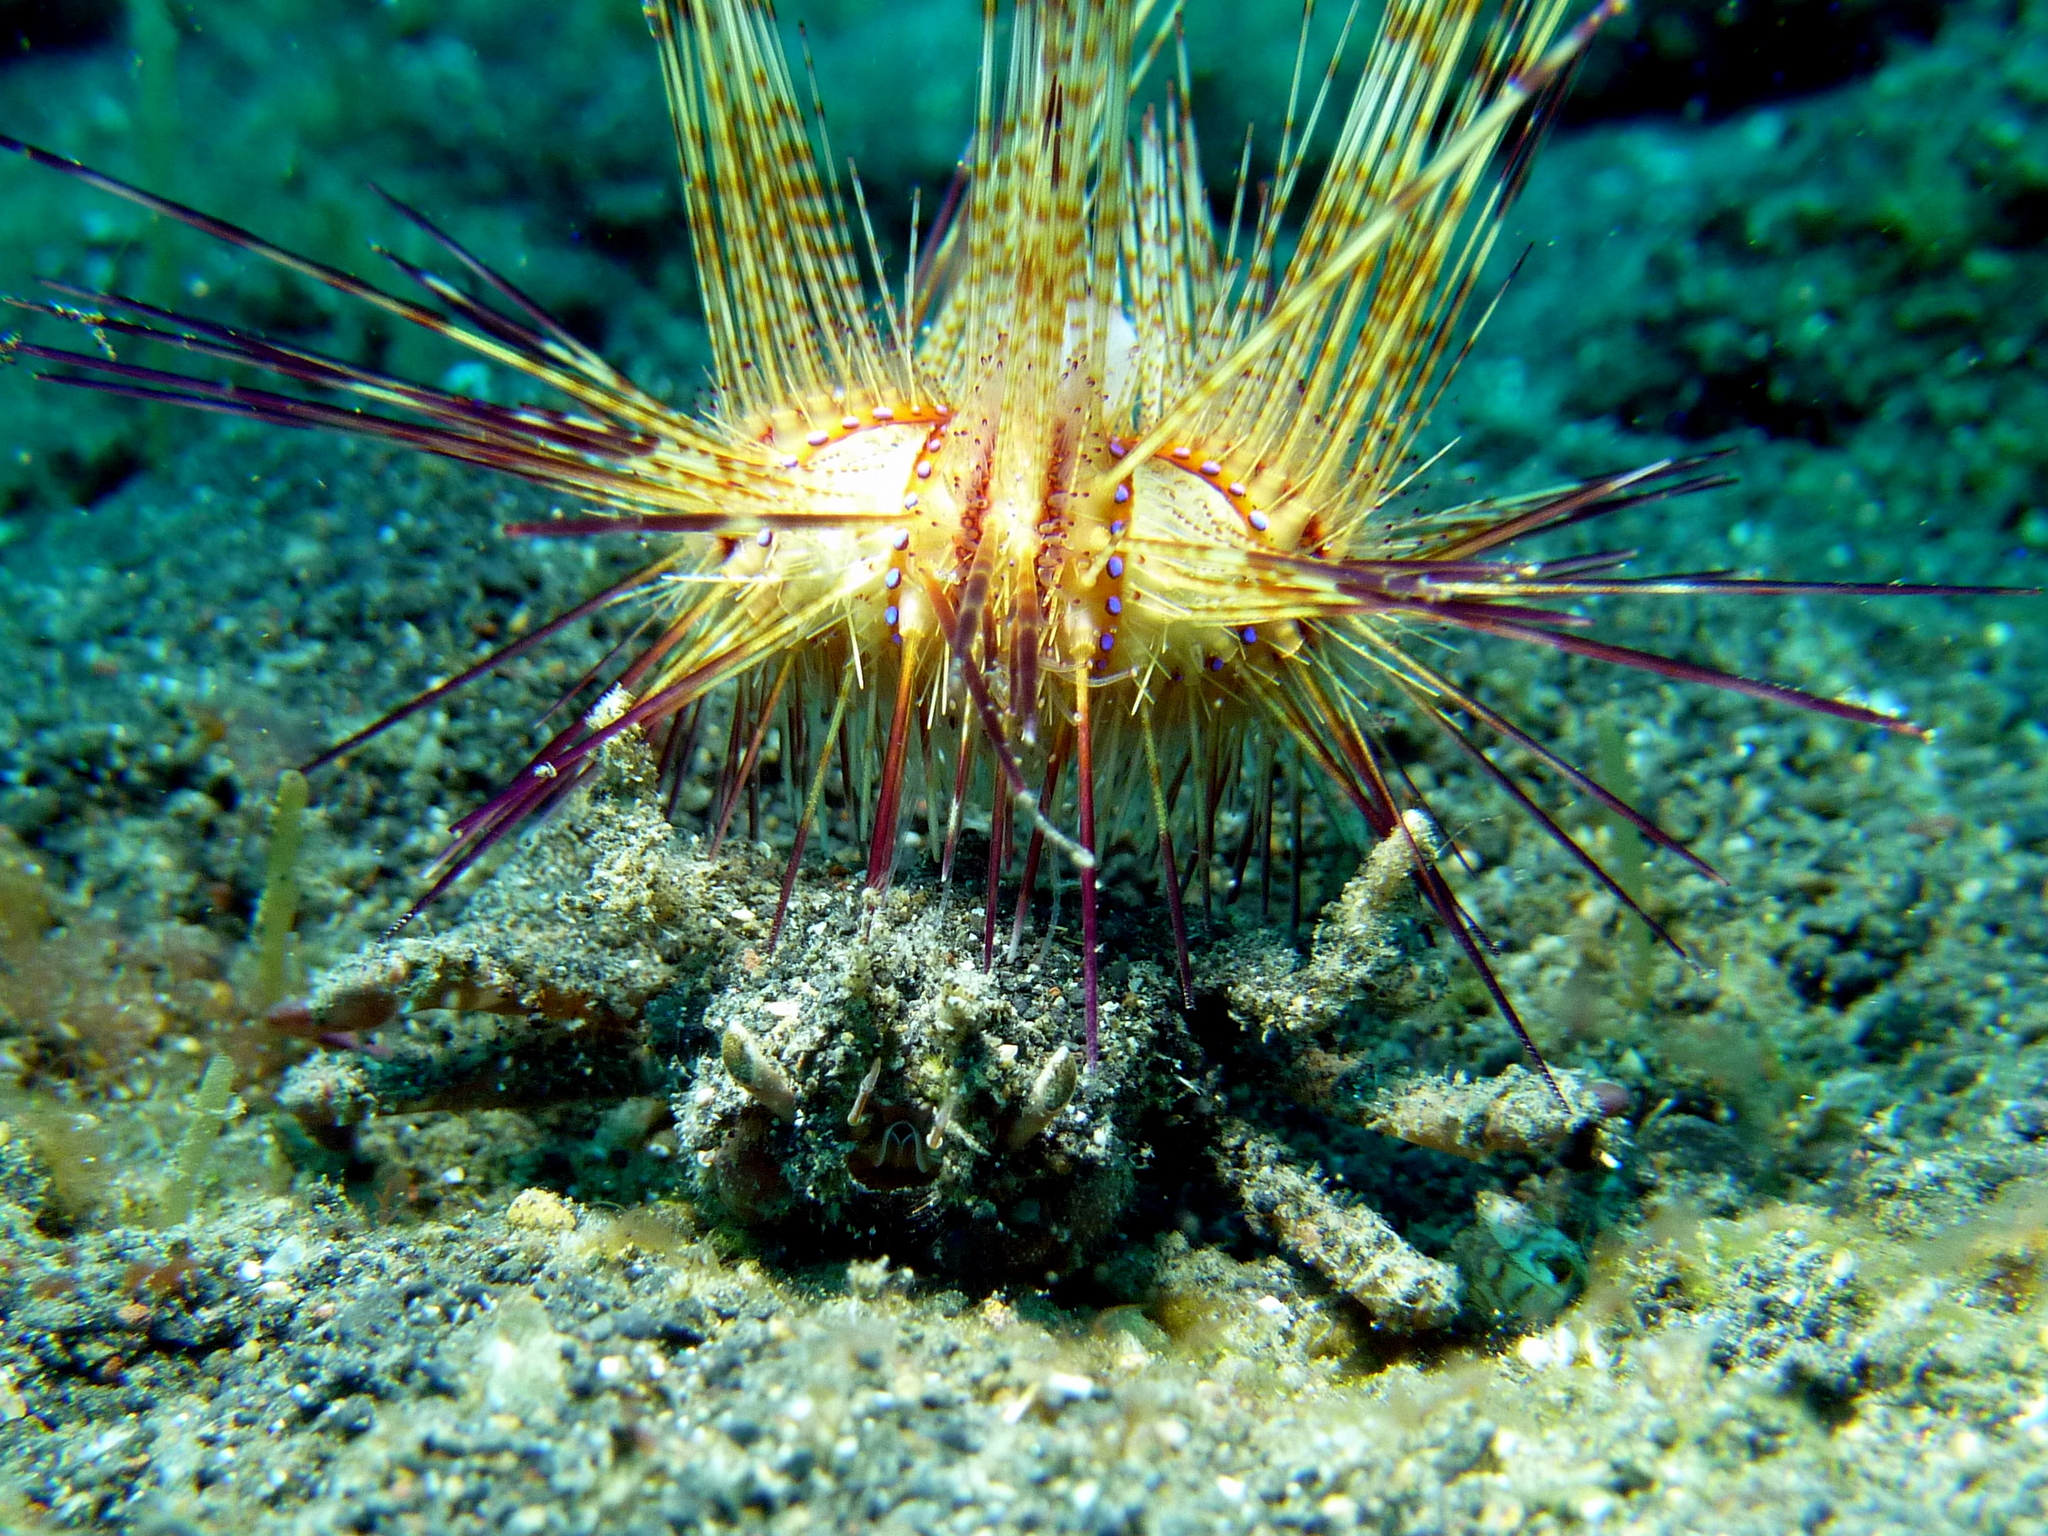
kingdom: Animalia
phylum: Echinodermata
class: Echinoidea
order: Diadematoida
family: Diadematidae
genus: Astropyga
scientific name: Astropyga radiata
